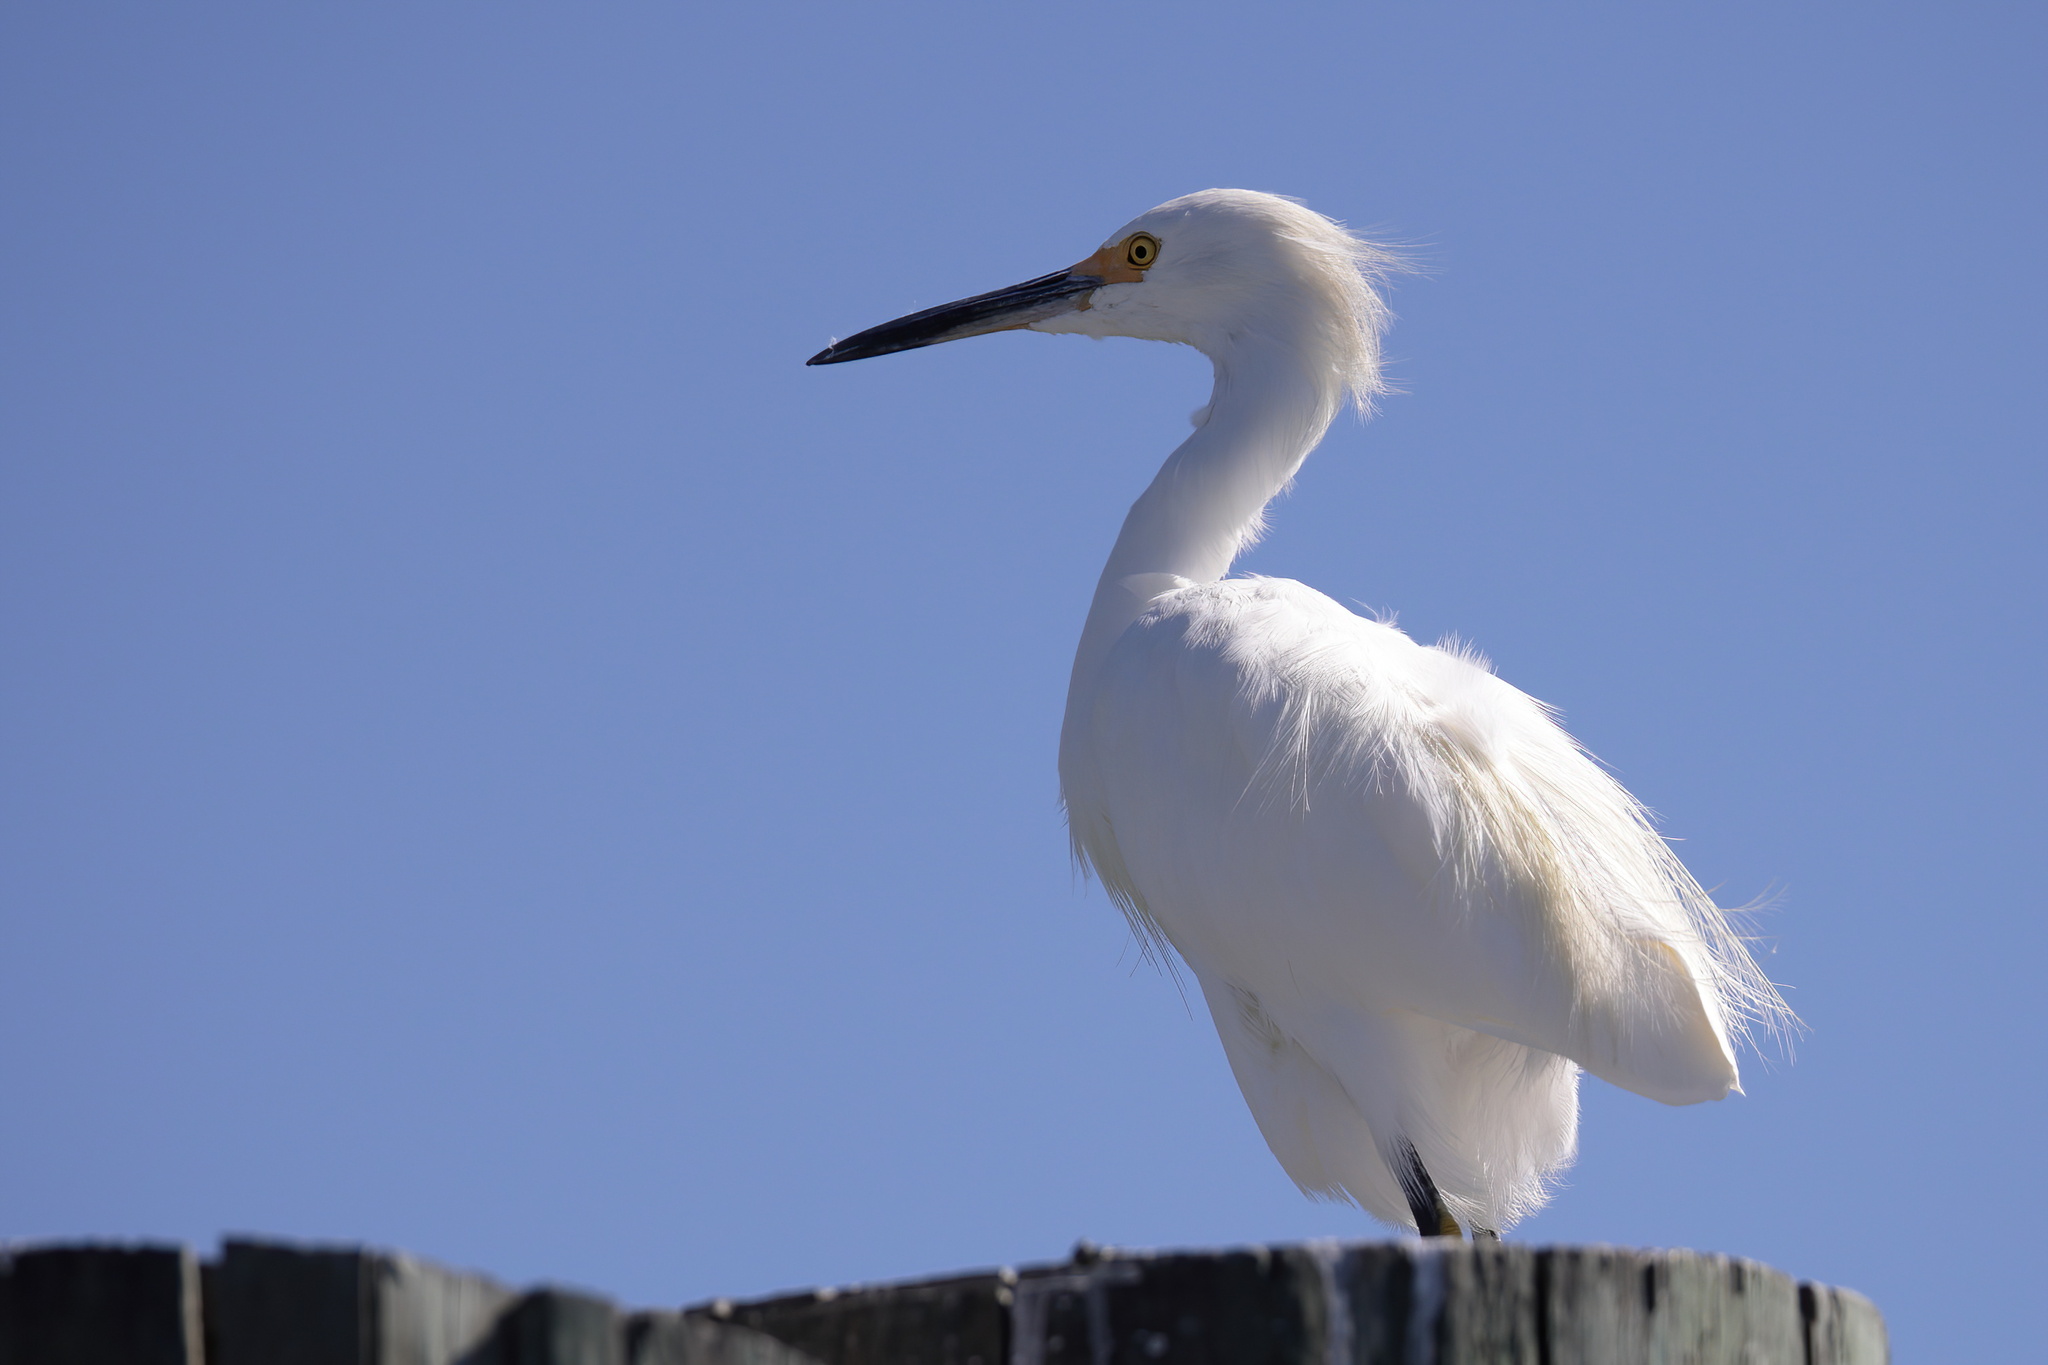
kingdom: Animalia
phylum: Chordata
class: Aves
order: Pelecaniformes
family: Ardeidae
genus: Egretta
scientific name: Egretta thula
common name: Snowy egret
